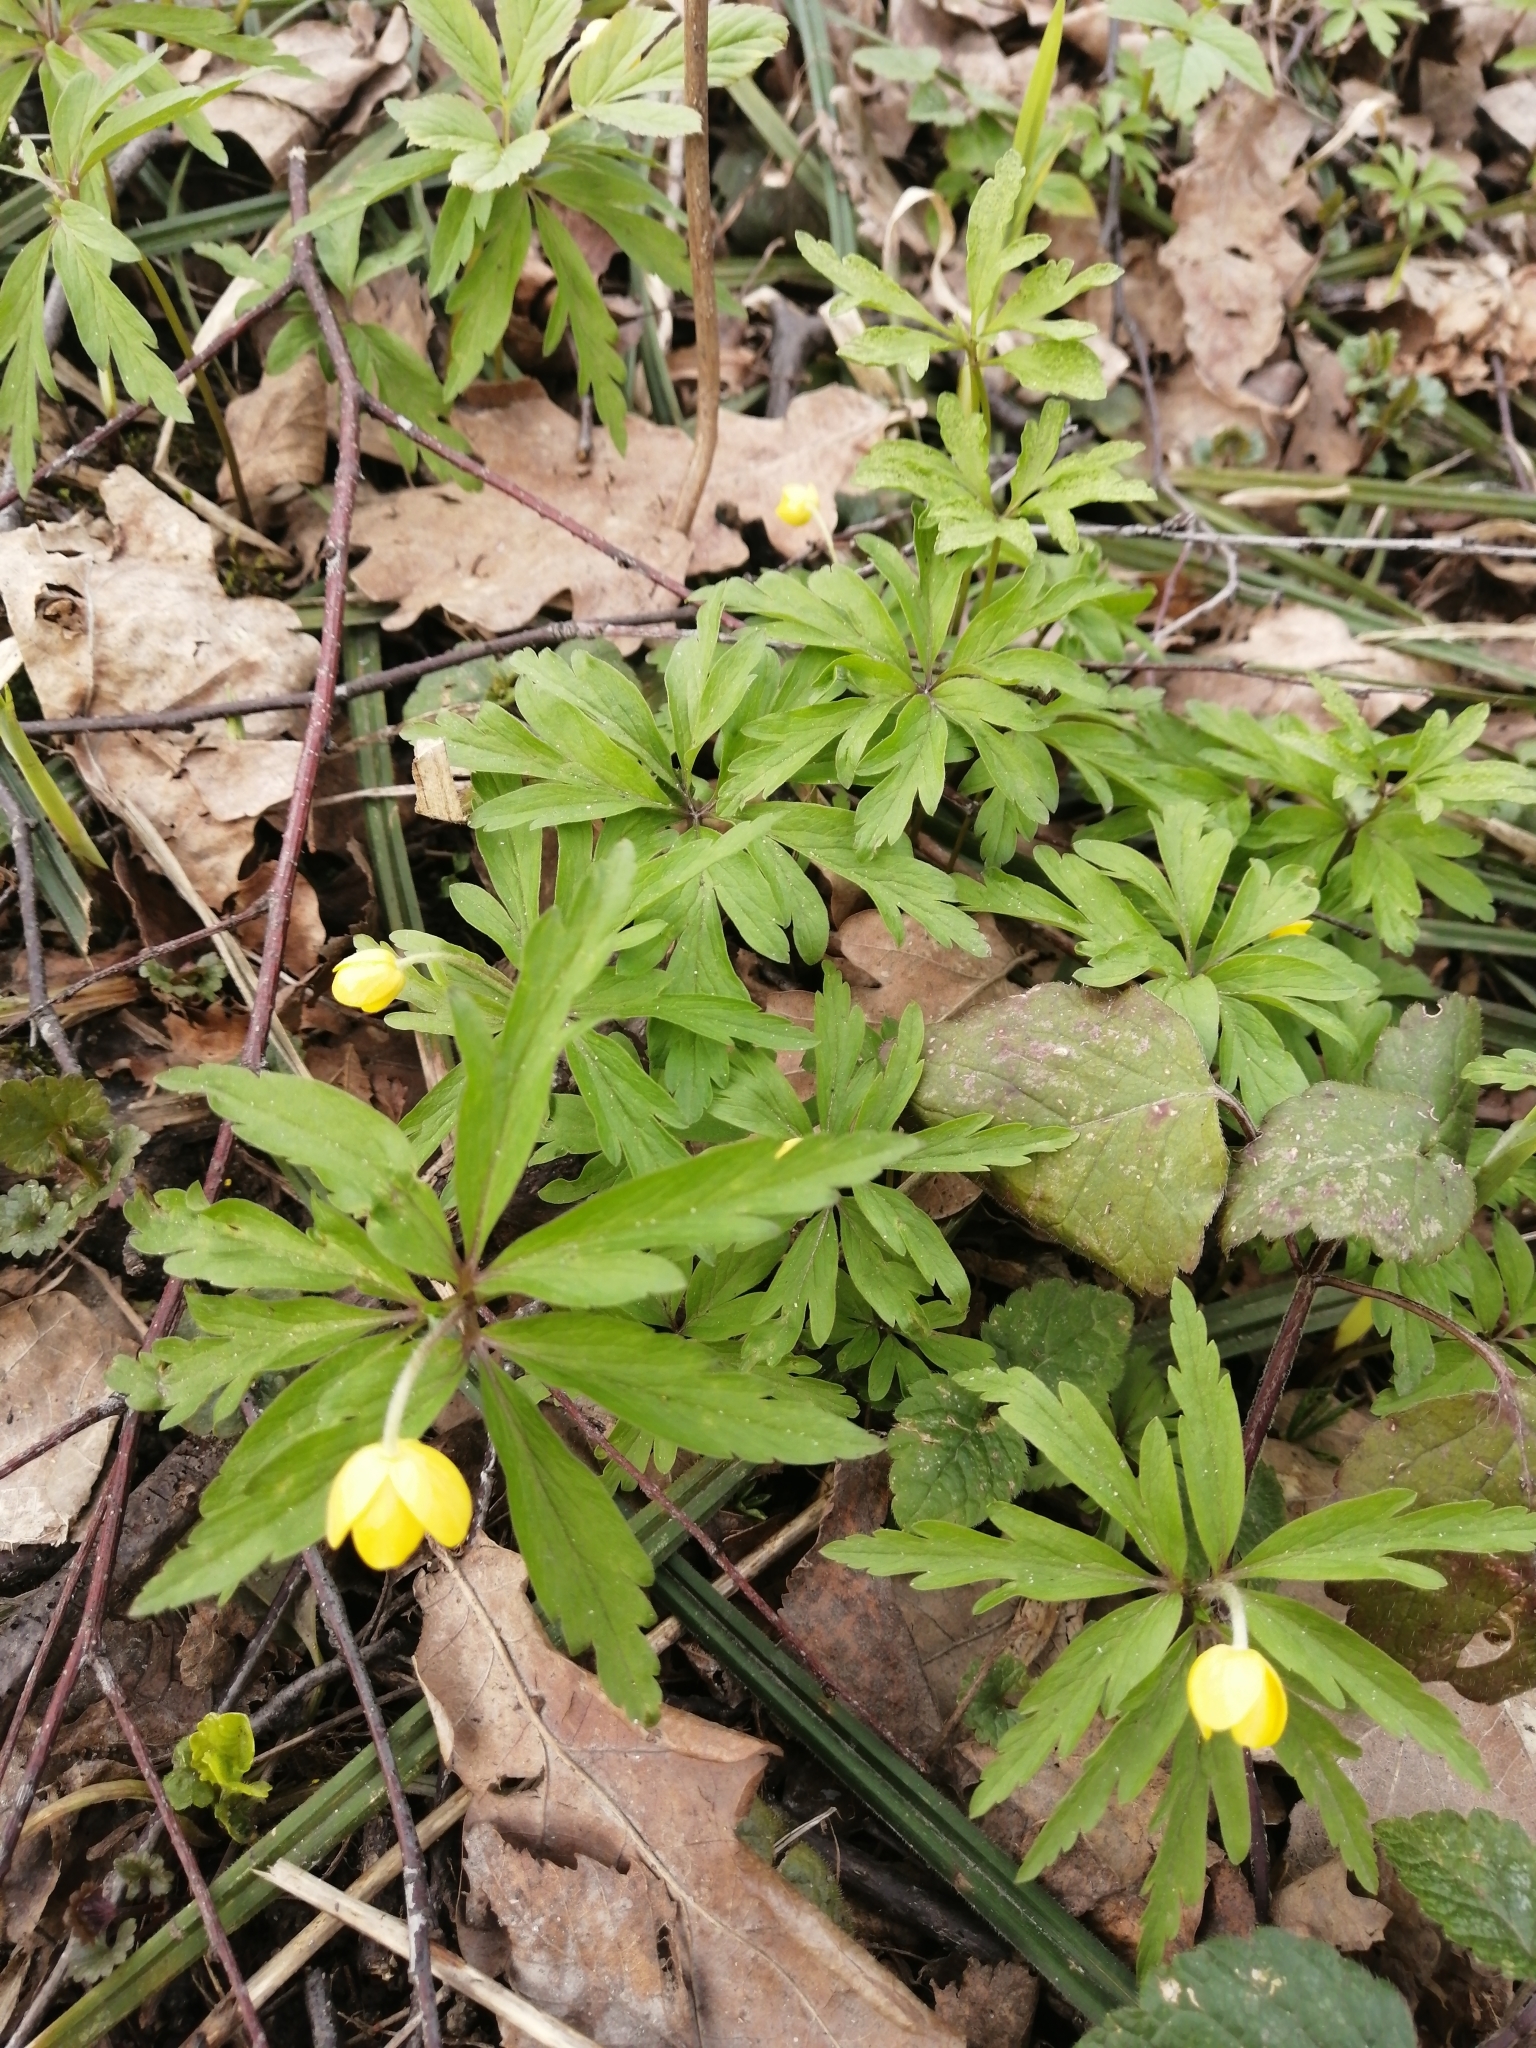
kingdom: Plantae
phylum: Tracheophyta
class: Magnoliopsida
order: Ranunculales
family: Ranunculaceae
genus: Anemone
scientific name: Anemone ranunculoides
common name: Yellow anemone
